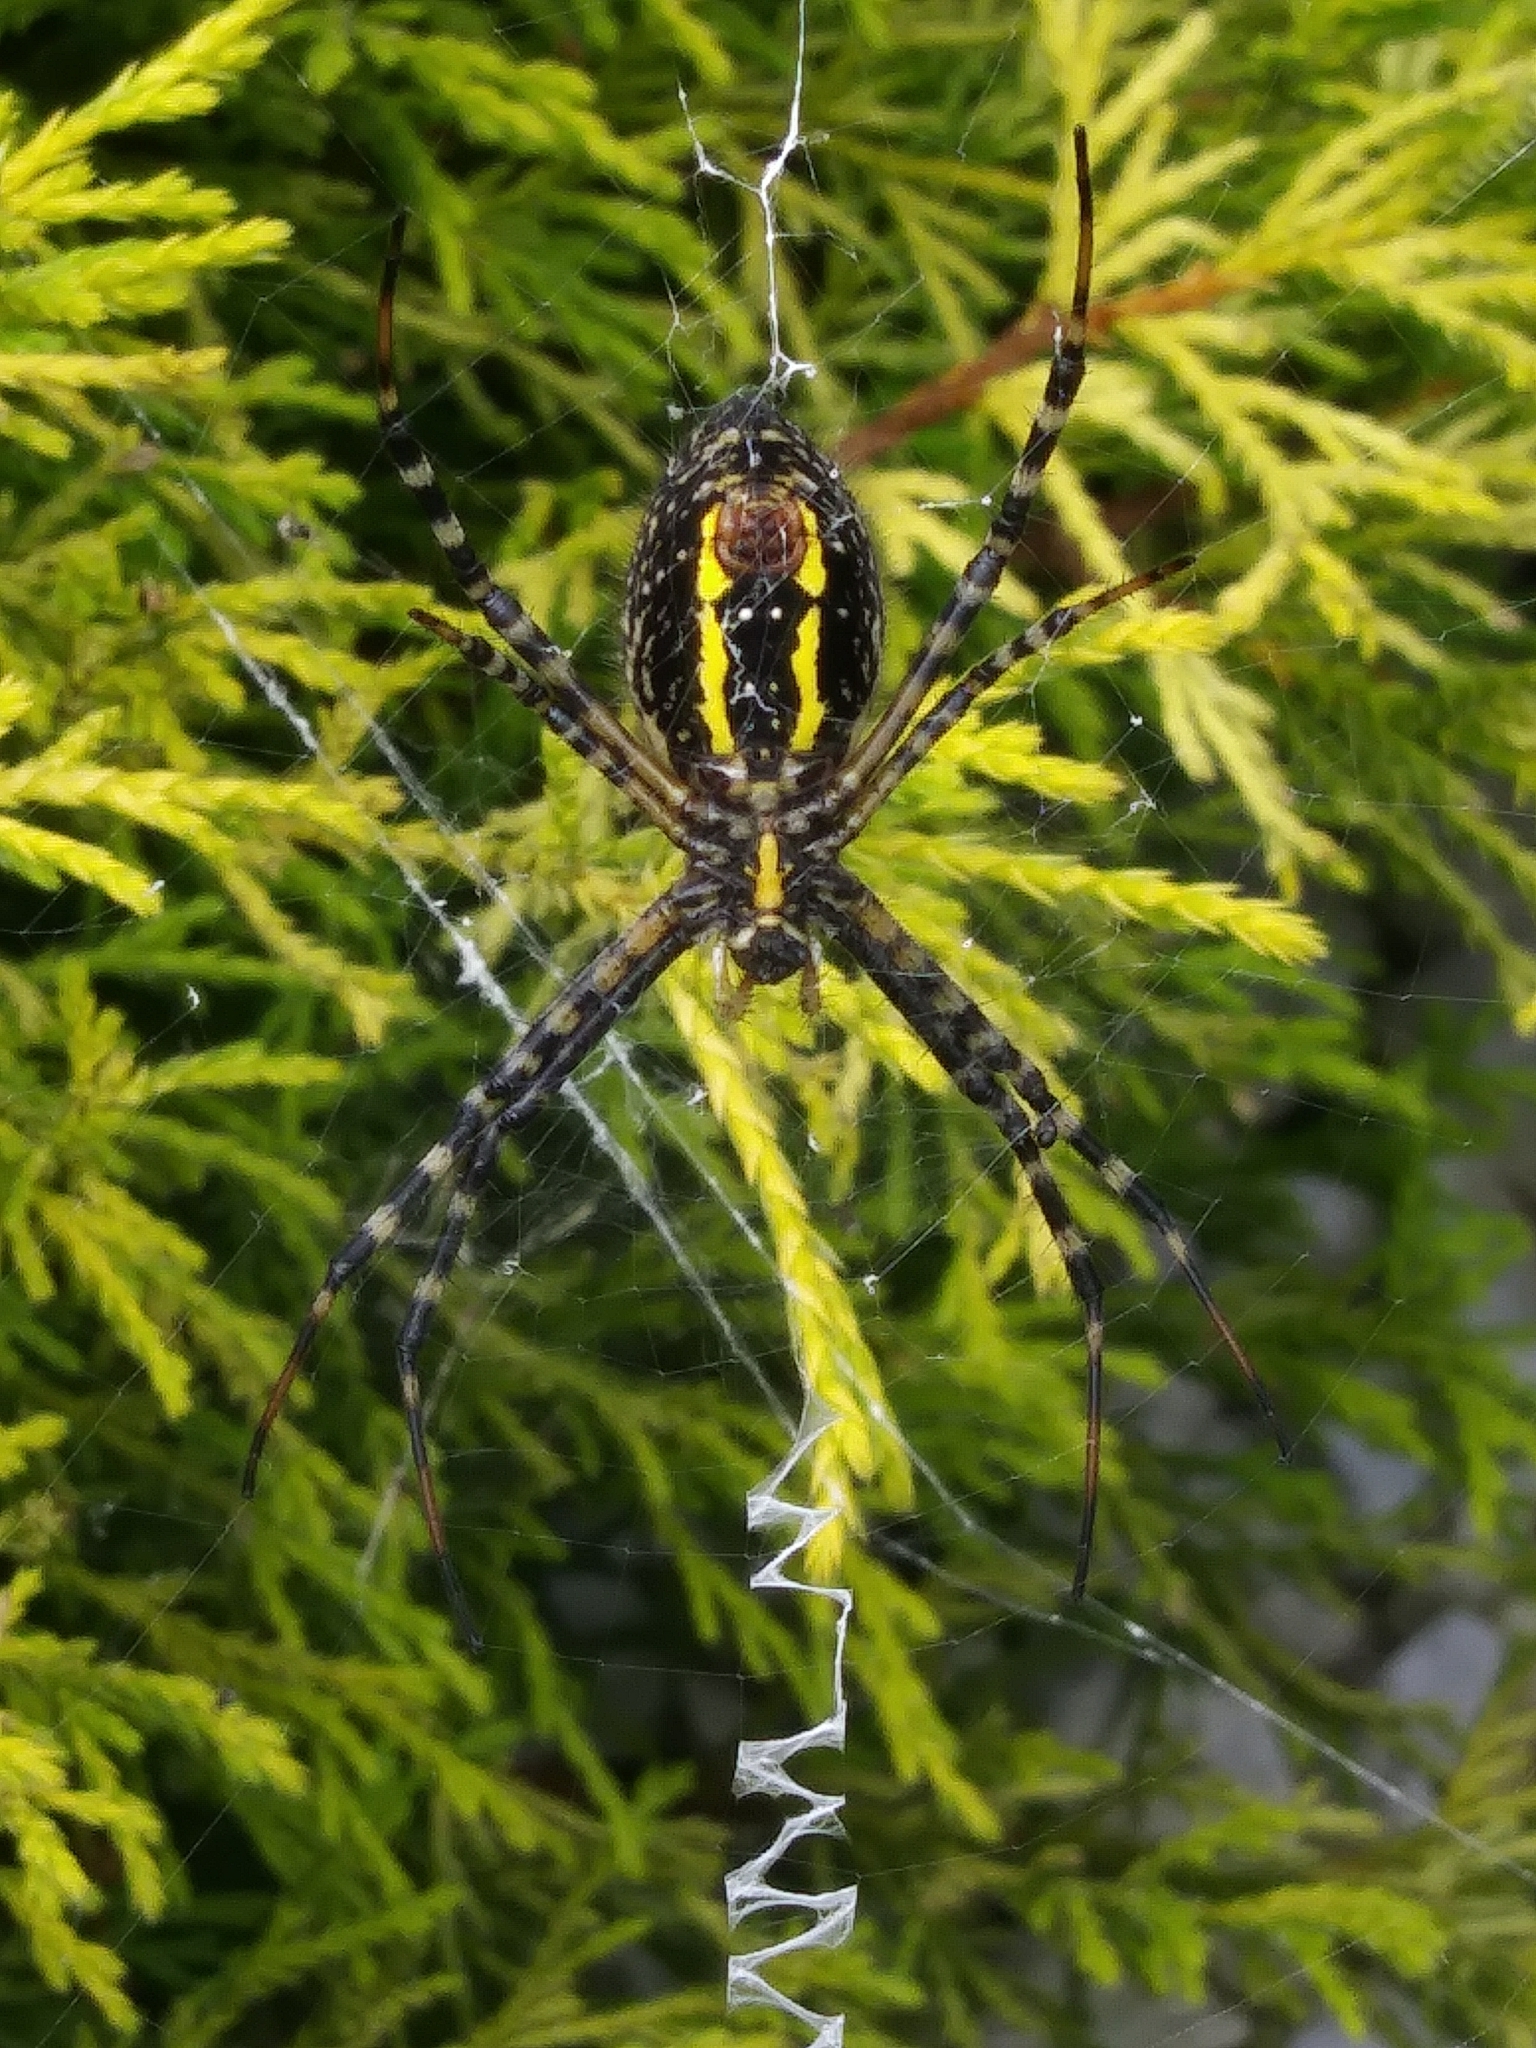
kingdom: Animalia
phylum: Arthropoda
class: Arachnida
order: Araneae
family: Araneidae
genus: Argiope
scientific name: Argiope trifasciata
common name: Banded garden spider
